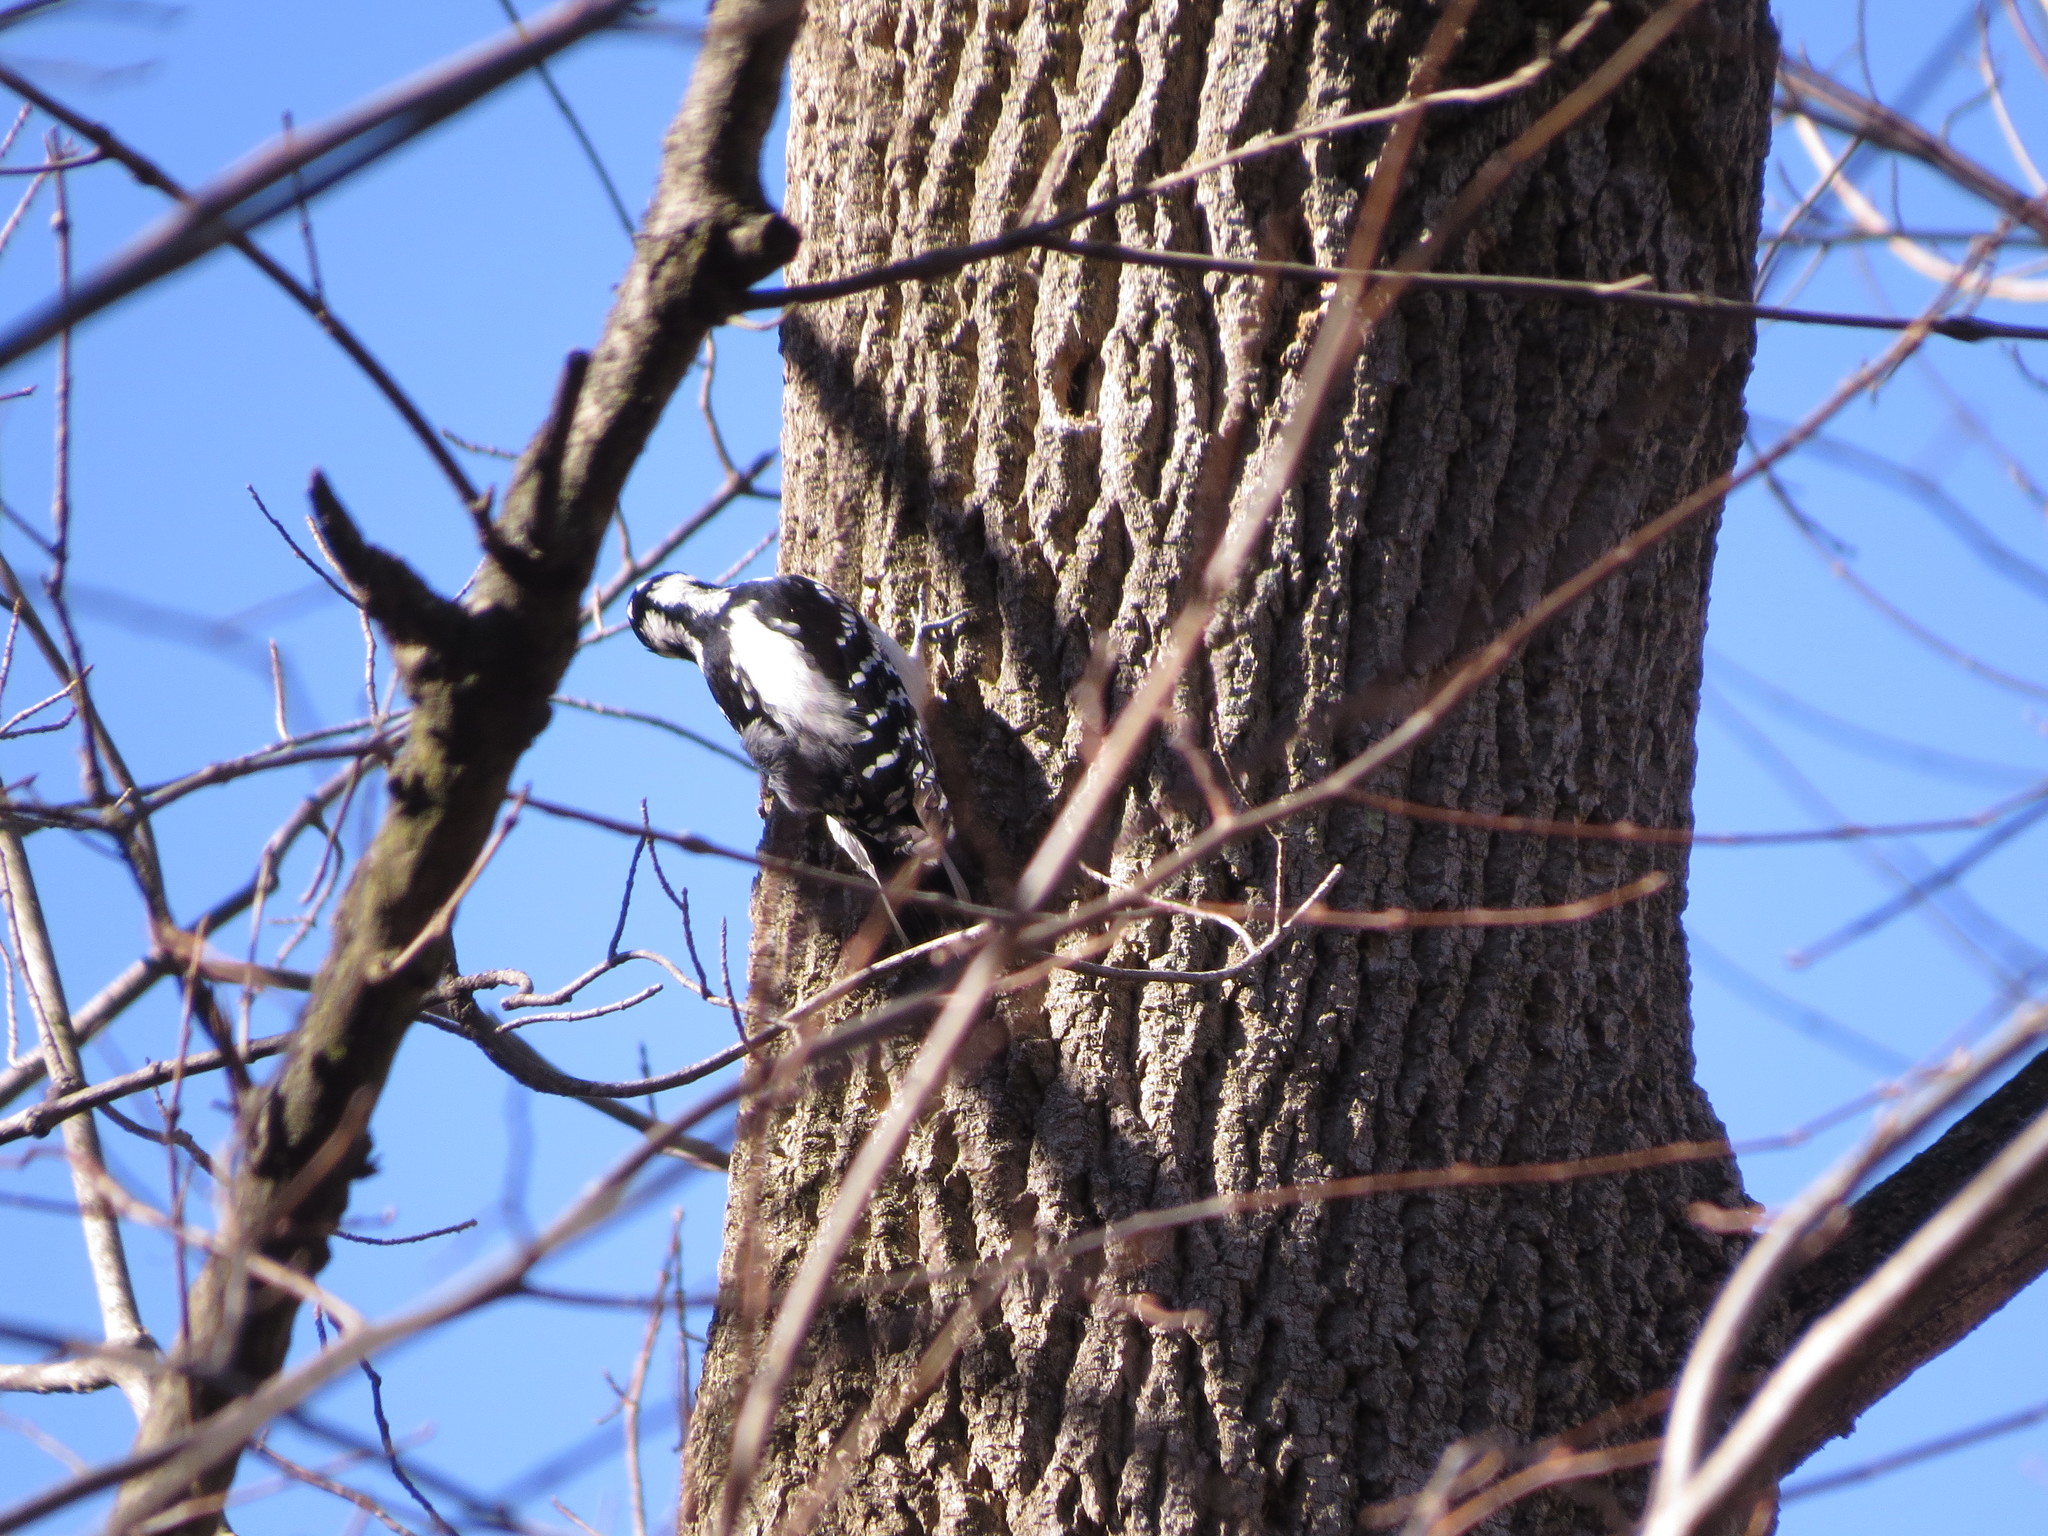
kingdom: Animalia
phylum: Chordata
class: Aves
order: Piciformes
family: Picidae
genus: Dryobates
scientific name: Dryobates pubescens
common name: Downy woodpecker
